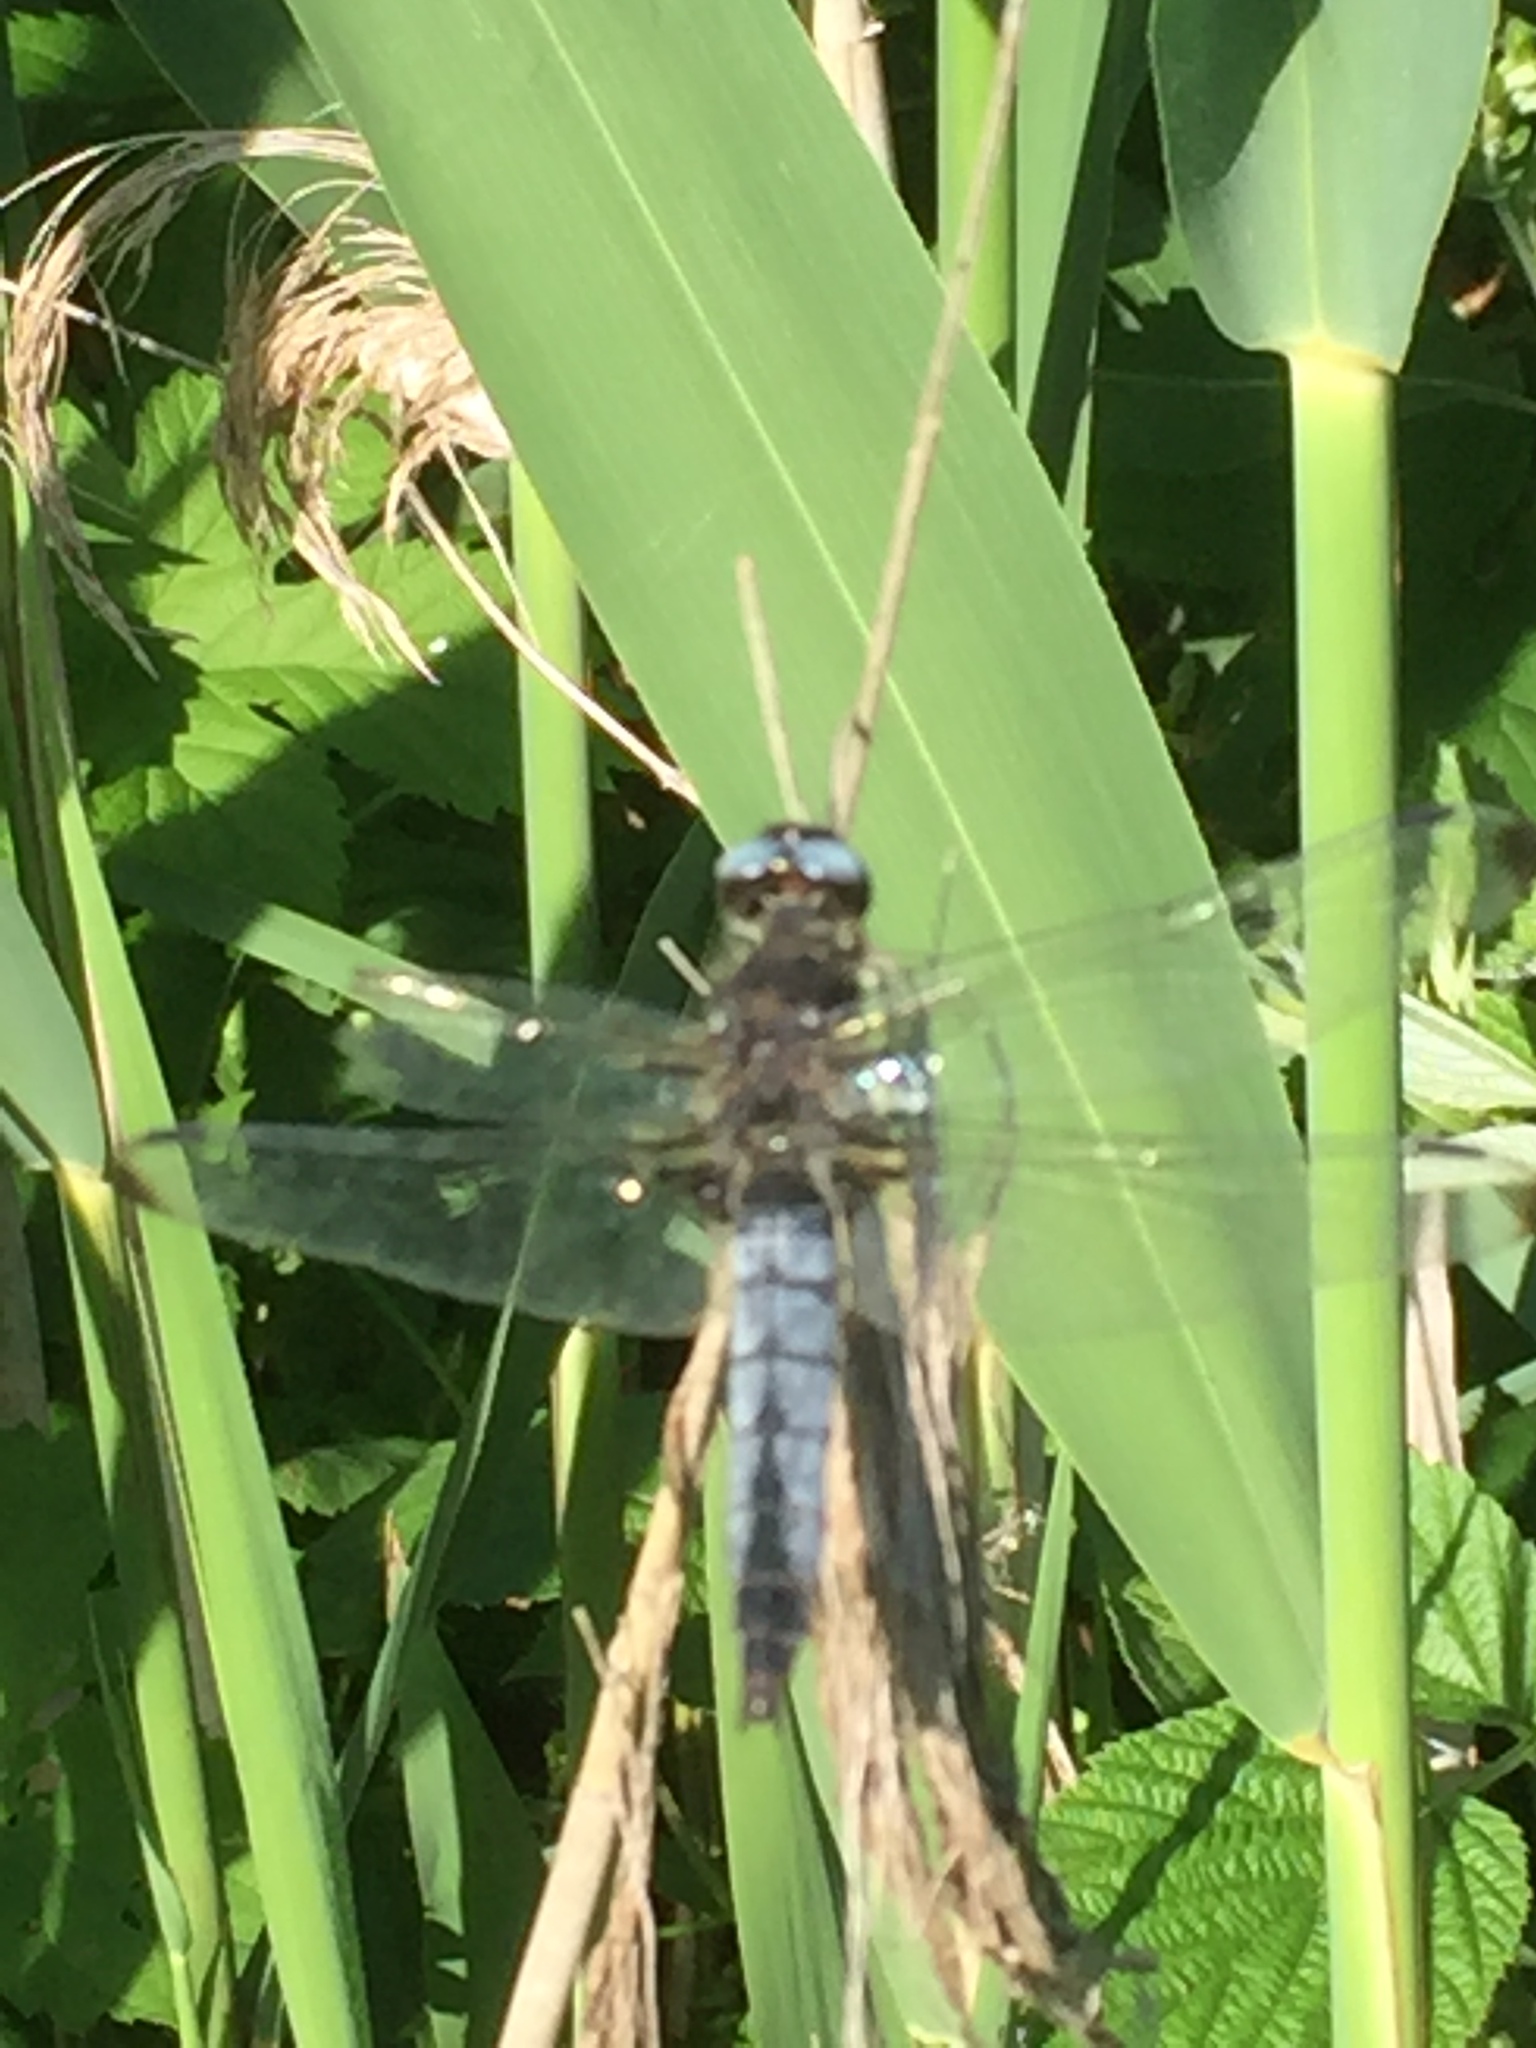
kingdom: Animalia
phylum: Arthropoda
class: Insecta
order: Odonata
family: Libellulidae
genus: Libellula
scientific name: Libellula fulva
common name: Blue chaser
